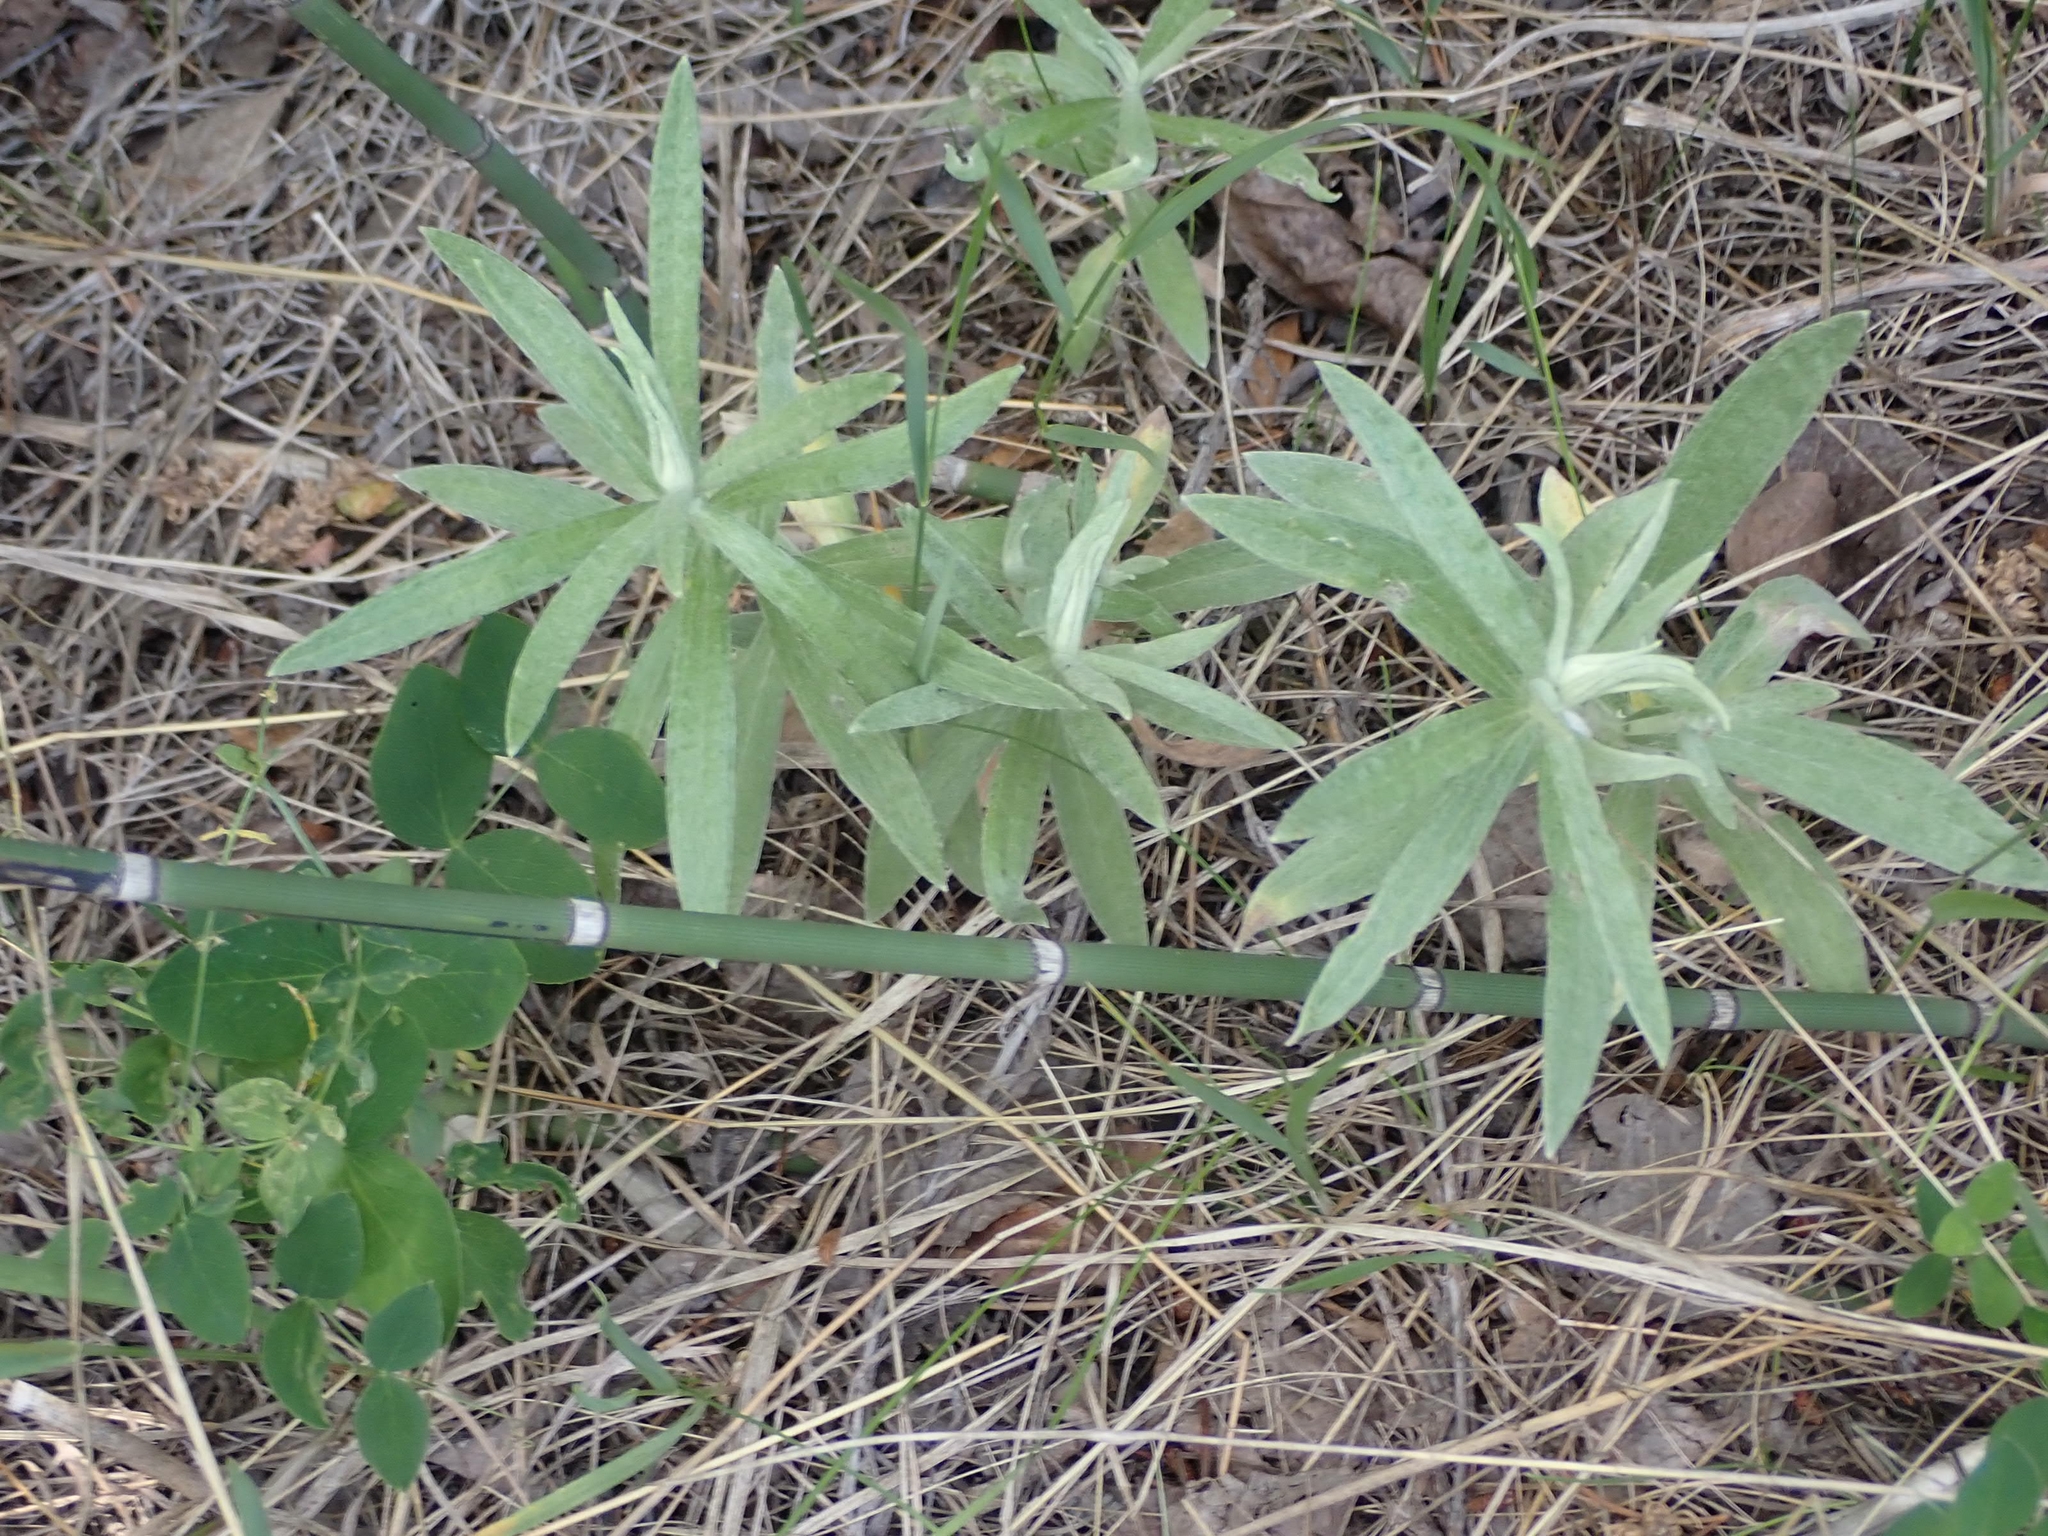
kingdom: Plantae
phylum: Tracheophyta
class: Magnoliopsida
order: Asterales
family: Asteraceae
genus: Artemisia
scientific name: Artemisia ludoviciana
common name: Western mugwort
